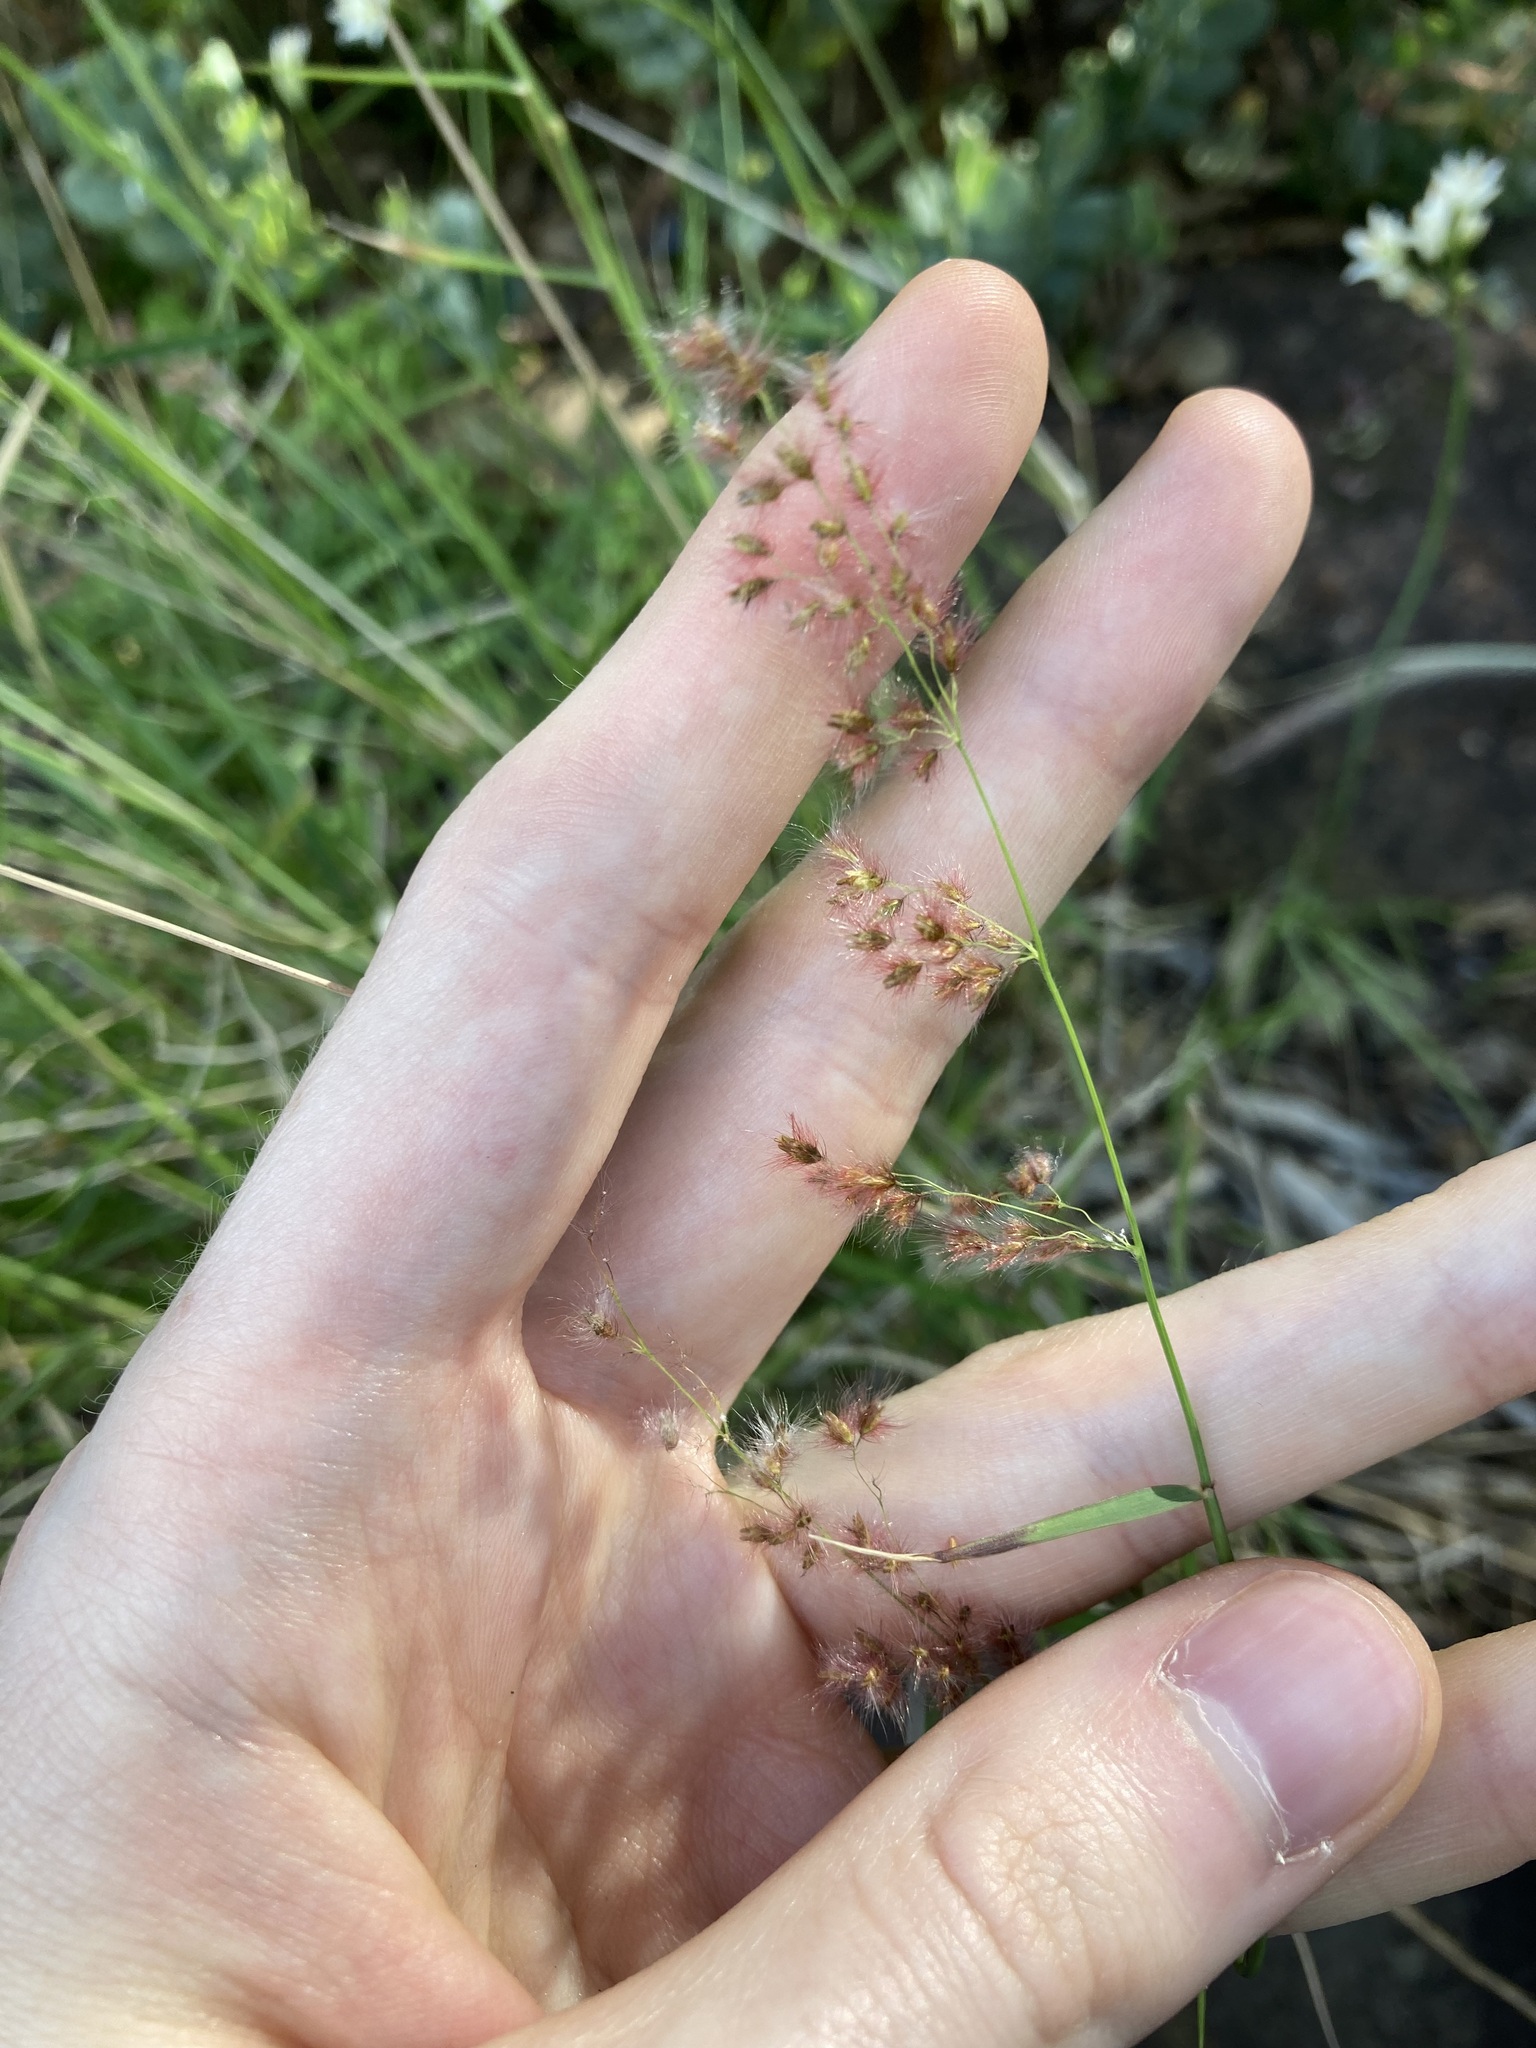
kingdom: Plantae
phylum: Tracheophyta
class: Liliopsida
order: Poales
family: Poaceae
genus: Melinis
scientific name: Melinis repens
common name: Rose natal grass
